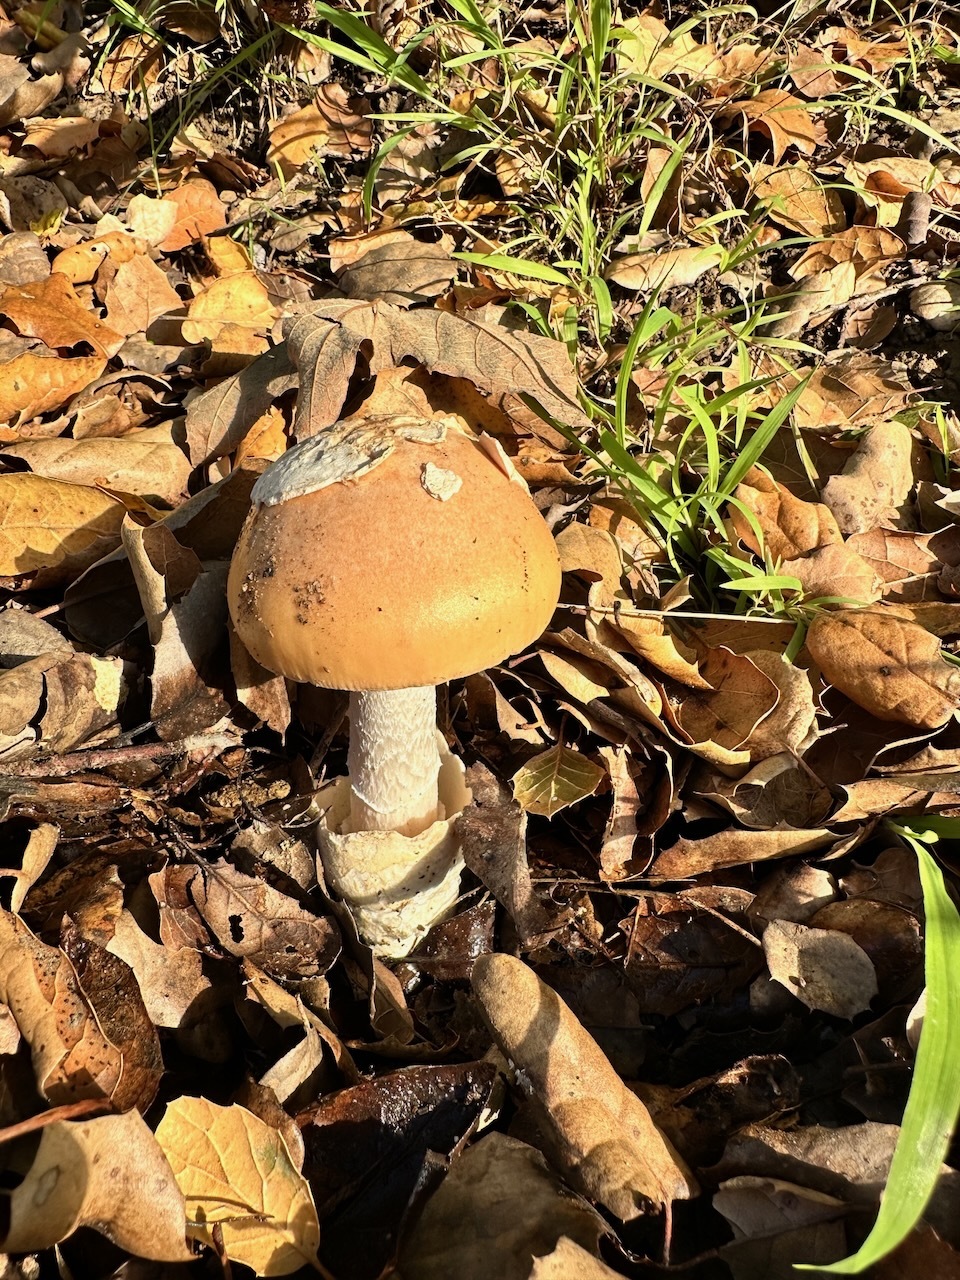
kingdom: Fungi
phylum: Basidiomycota
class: Agaricomycetes
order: Agaricales
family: Amanitaceae
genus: Amanita
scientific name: Amanita velosa
